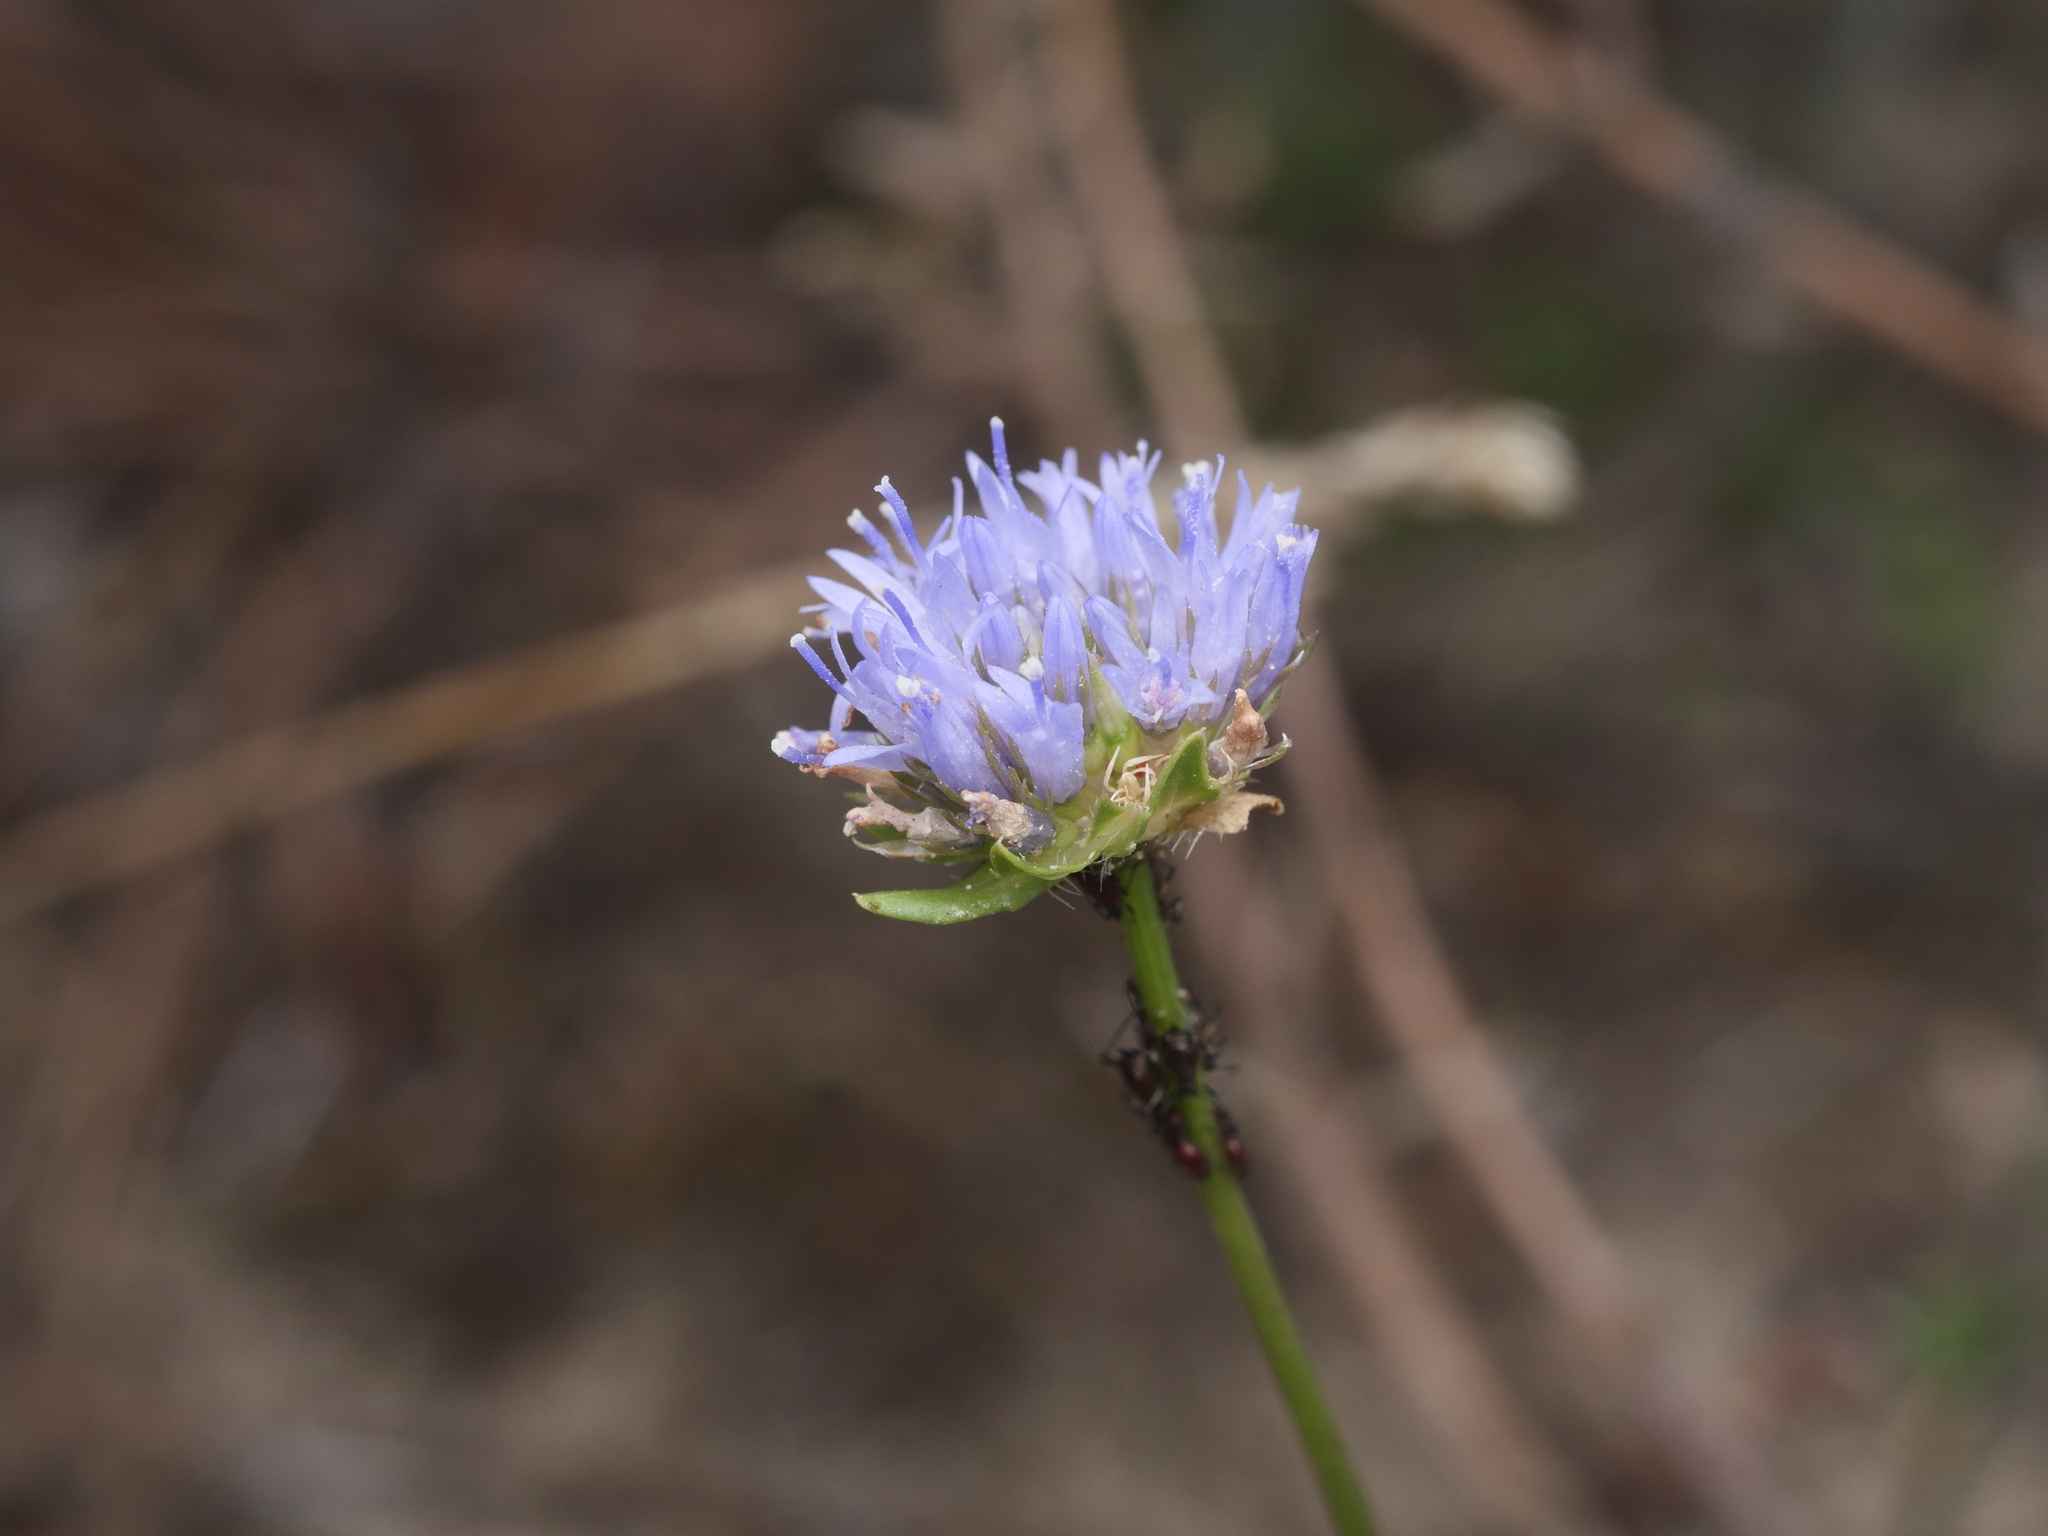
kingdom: Plantae
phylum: Tracheophyta
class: Magnoliopsida
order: Asterales
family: Campanulaceae
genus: Jasione
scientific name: Jasione montana
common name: Sheep's-bit
